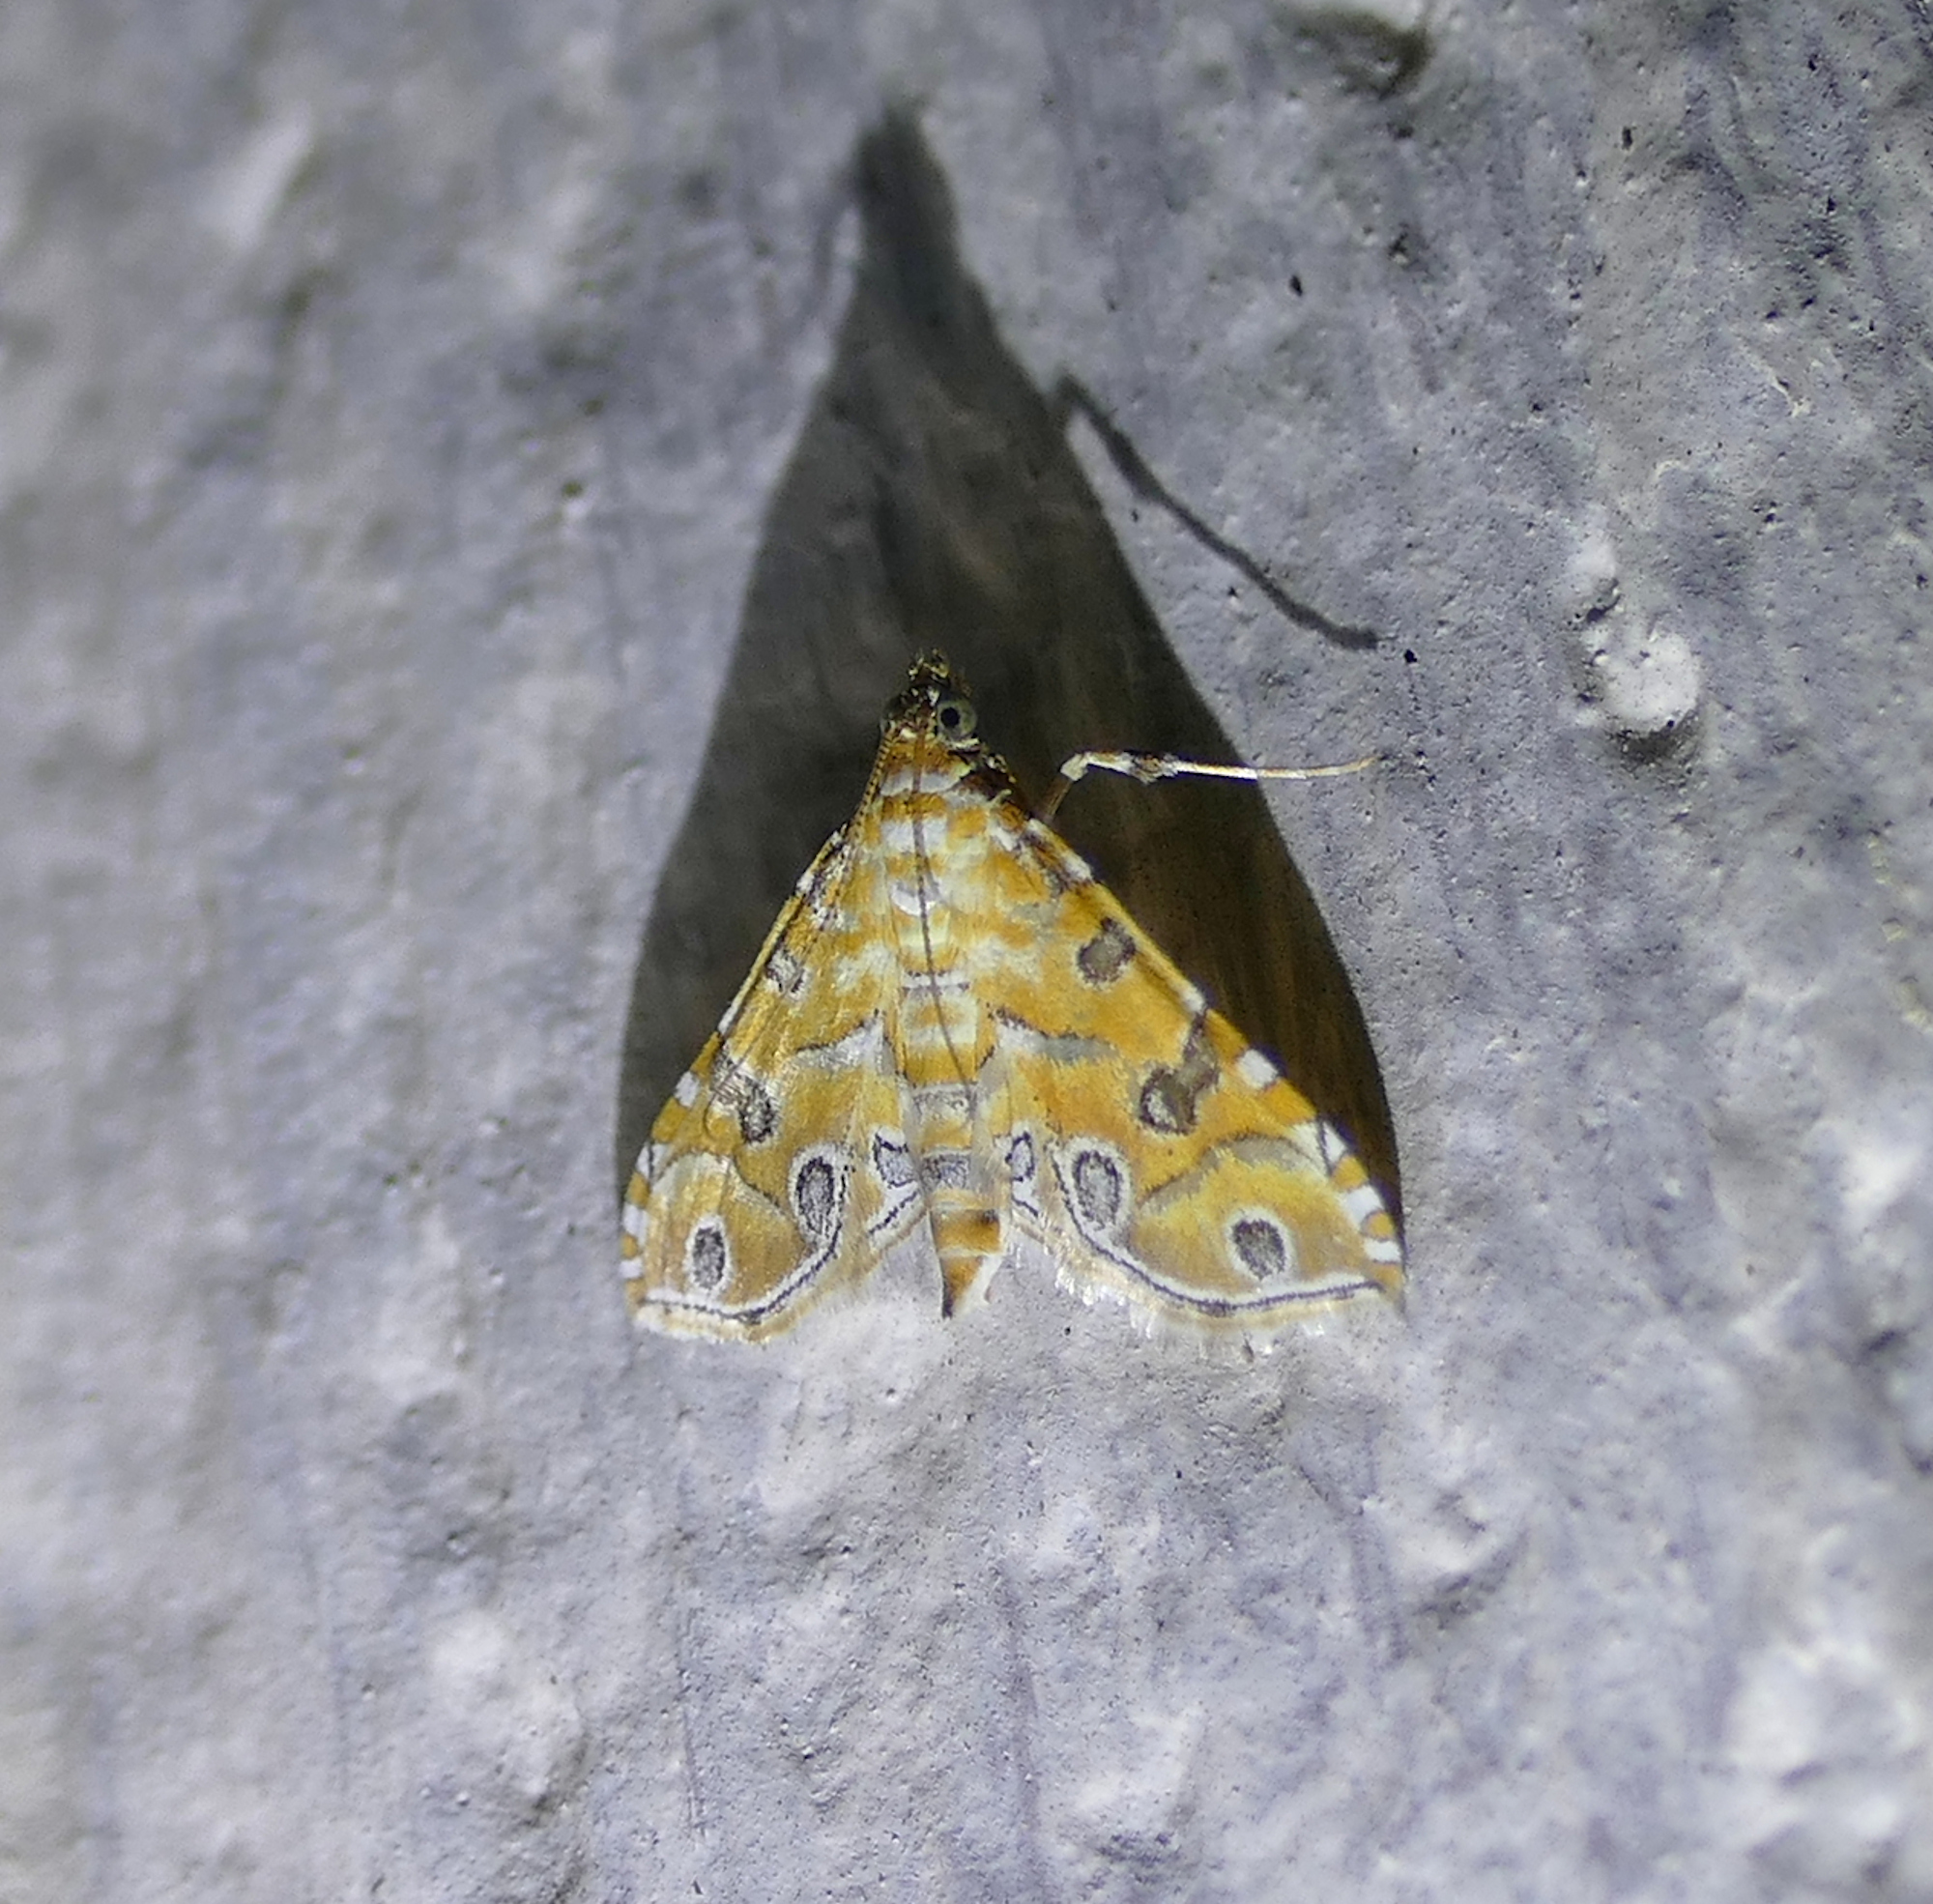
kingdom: Animalia
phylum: Arthropoda
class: Insecta
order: Lepidoptera
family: Crambidae
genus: Ommatospila
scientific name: Ommatospila narcaeusalis
